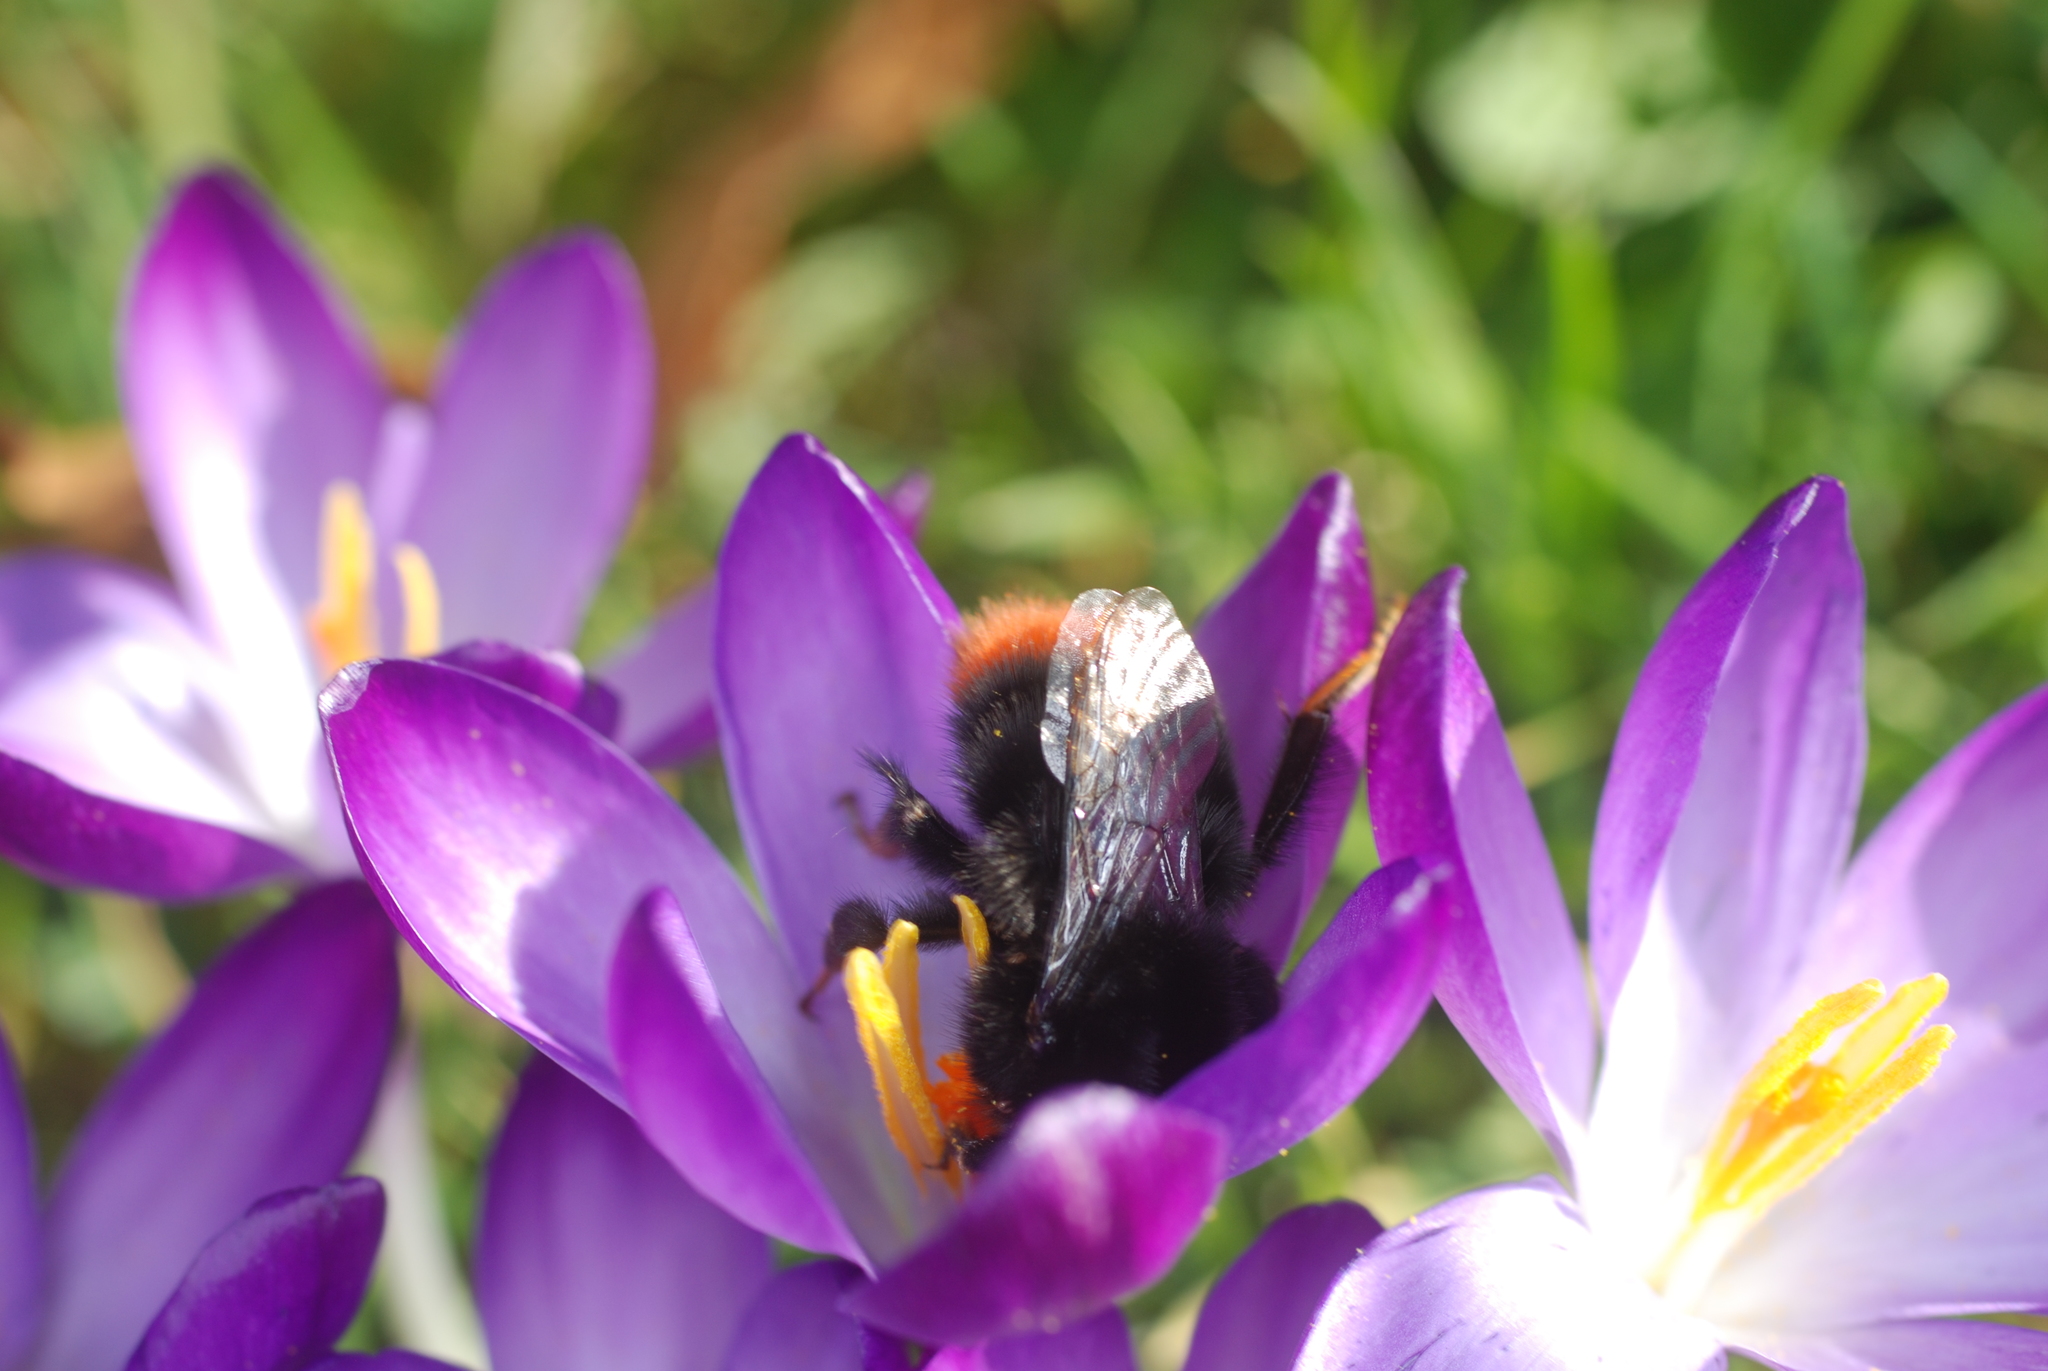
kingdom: Animalia
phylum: Arthropoda
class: Insecta
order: Hymenoptera
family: Apidae
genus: Bombus
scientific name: Bombus lapidarius
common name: Large red-tailed humble-bee
